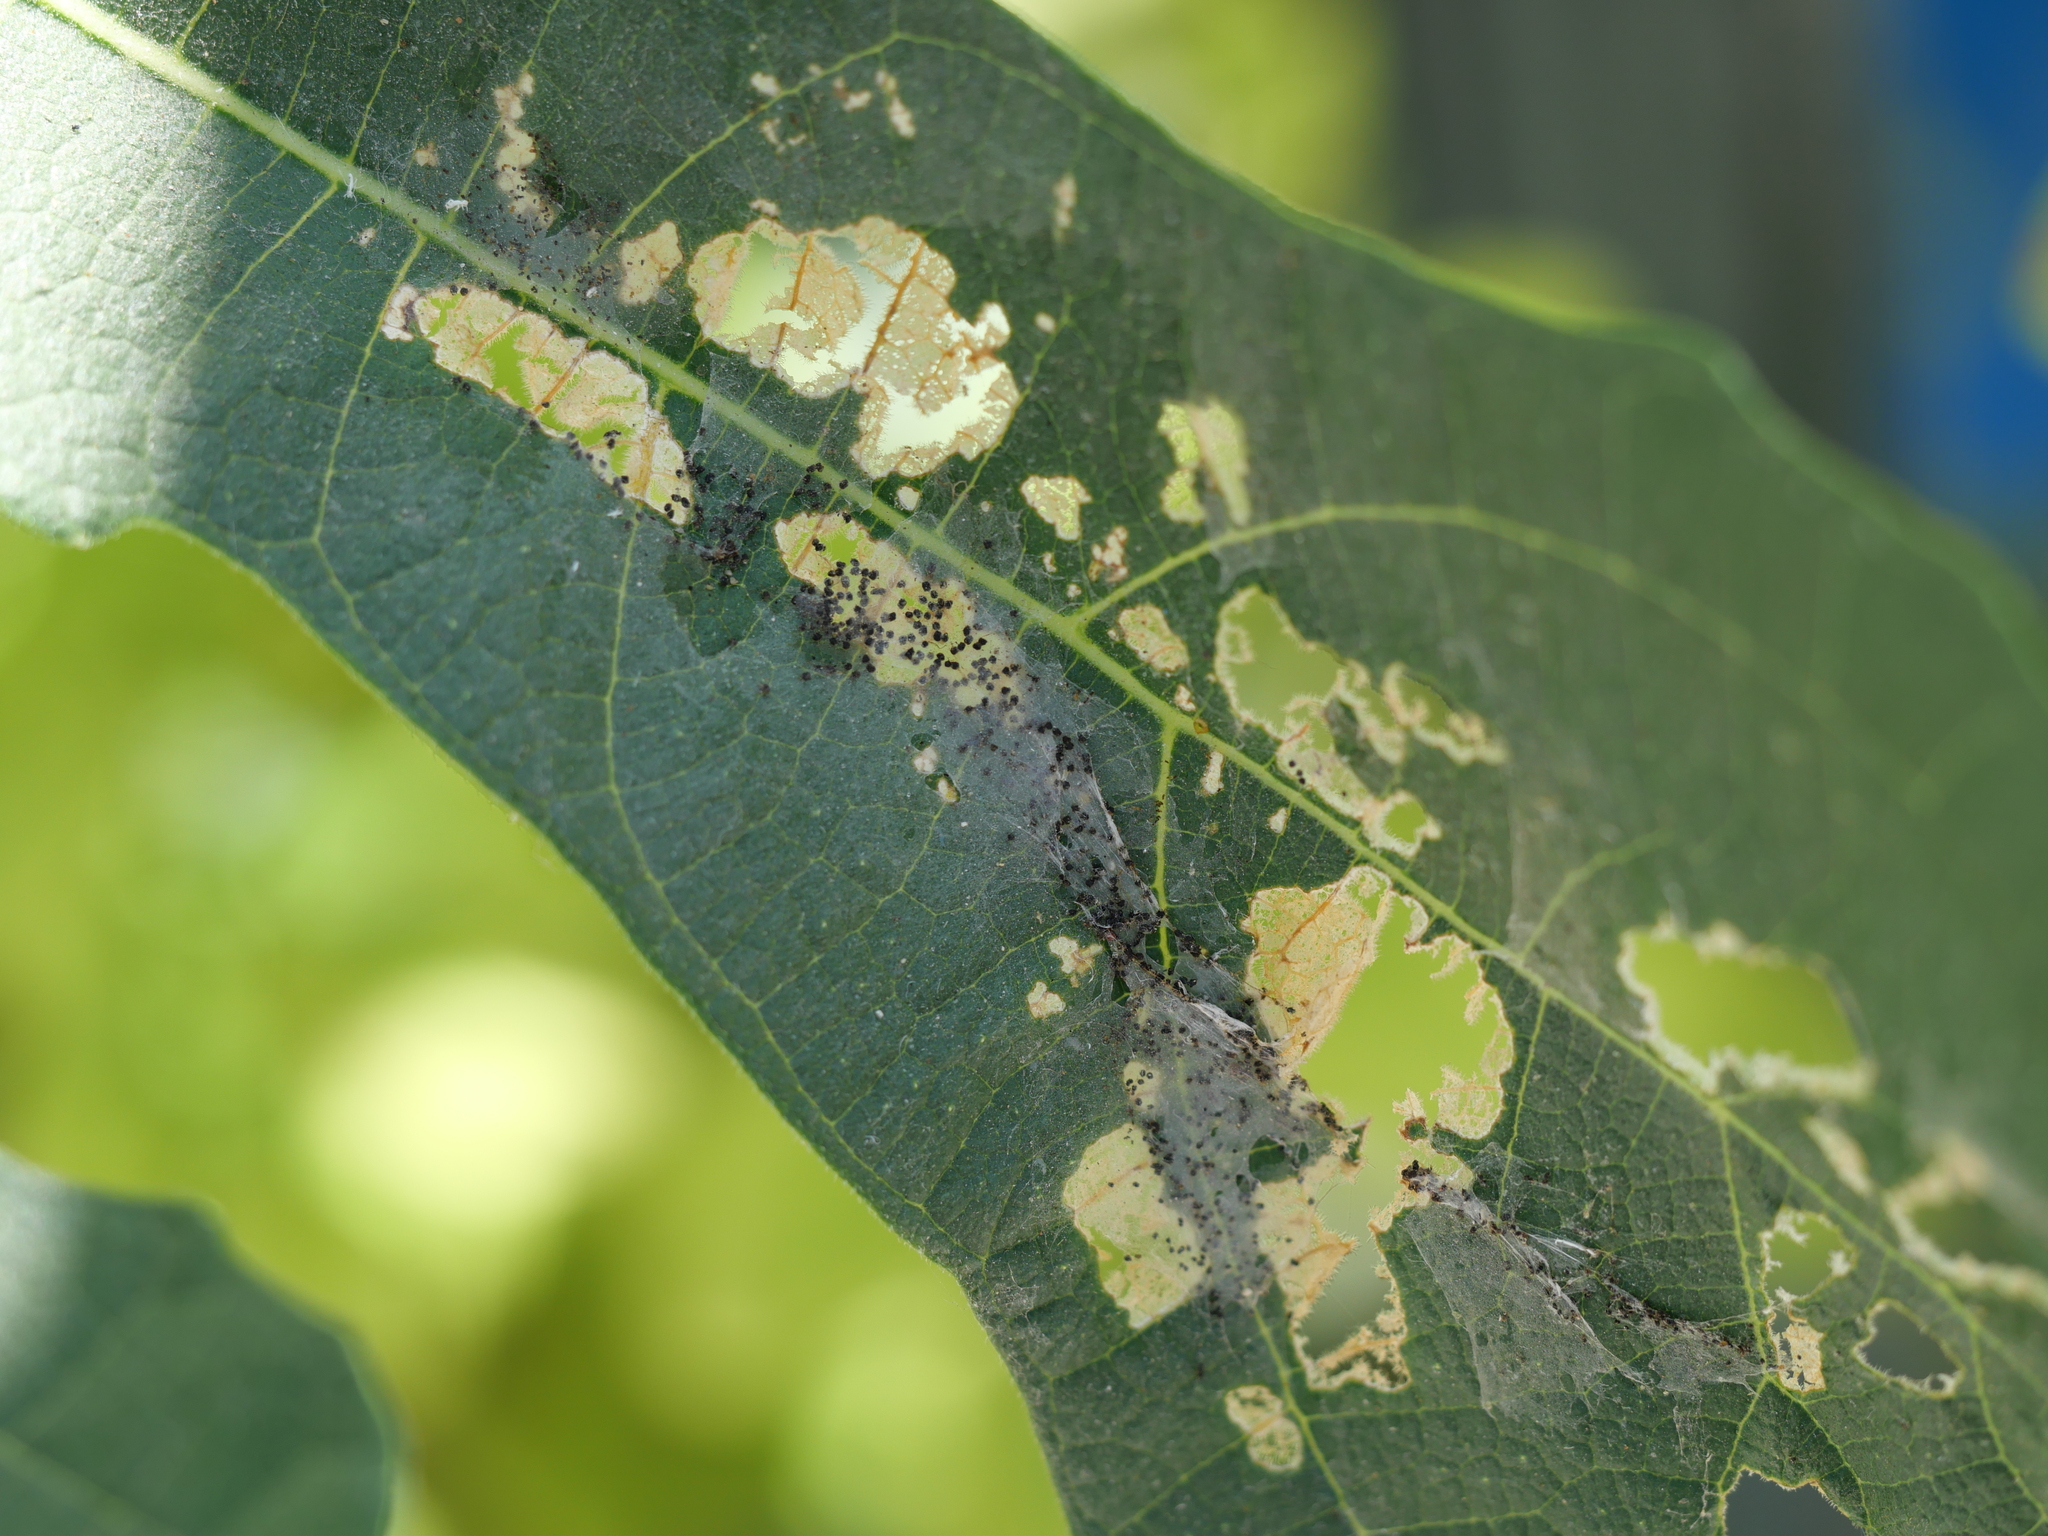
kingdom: Animalia
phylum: Arthropoda
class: Insecta
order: Lepidoptera
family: Choreutidae
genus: Anthophila
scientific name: Anthophila nemorana
